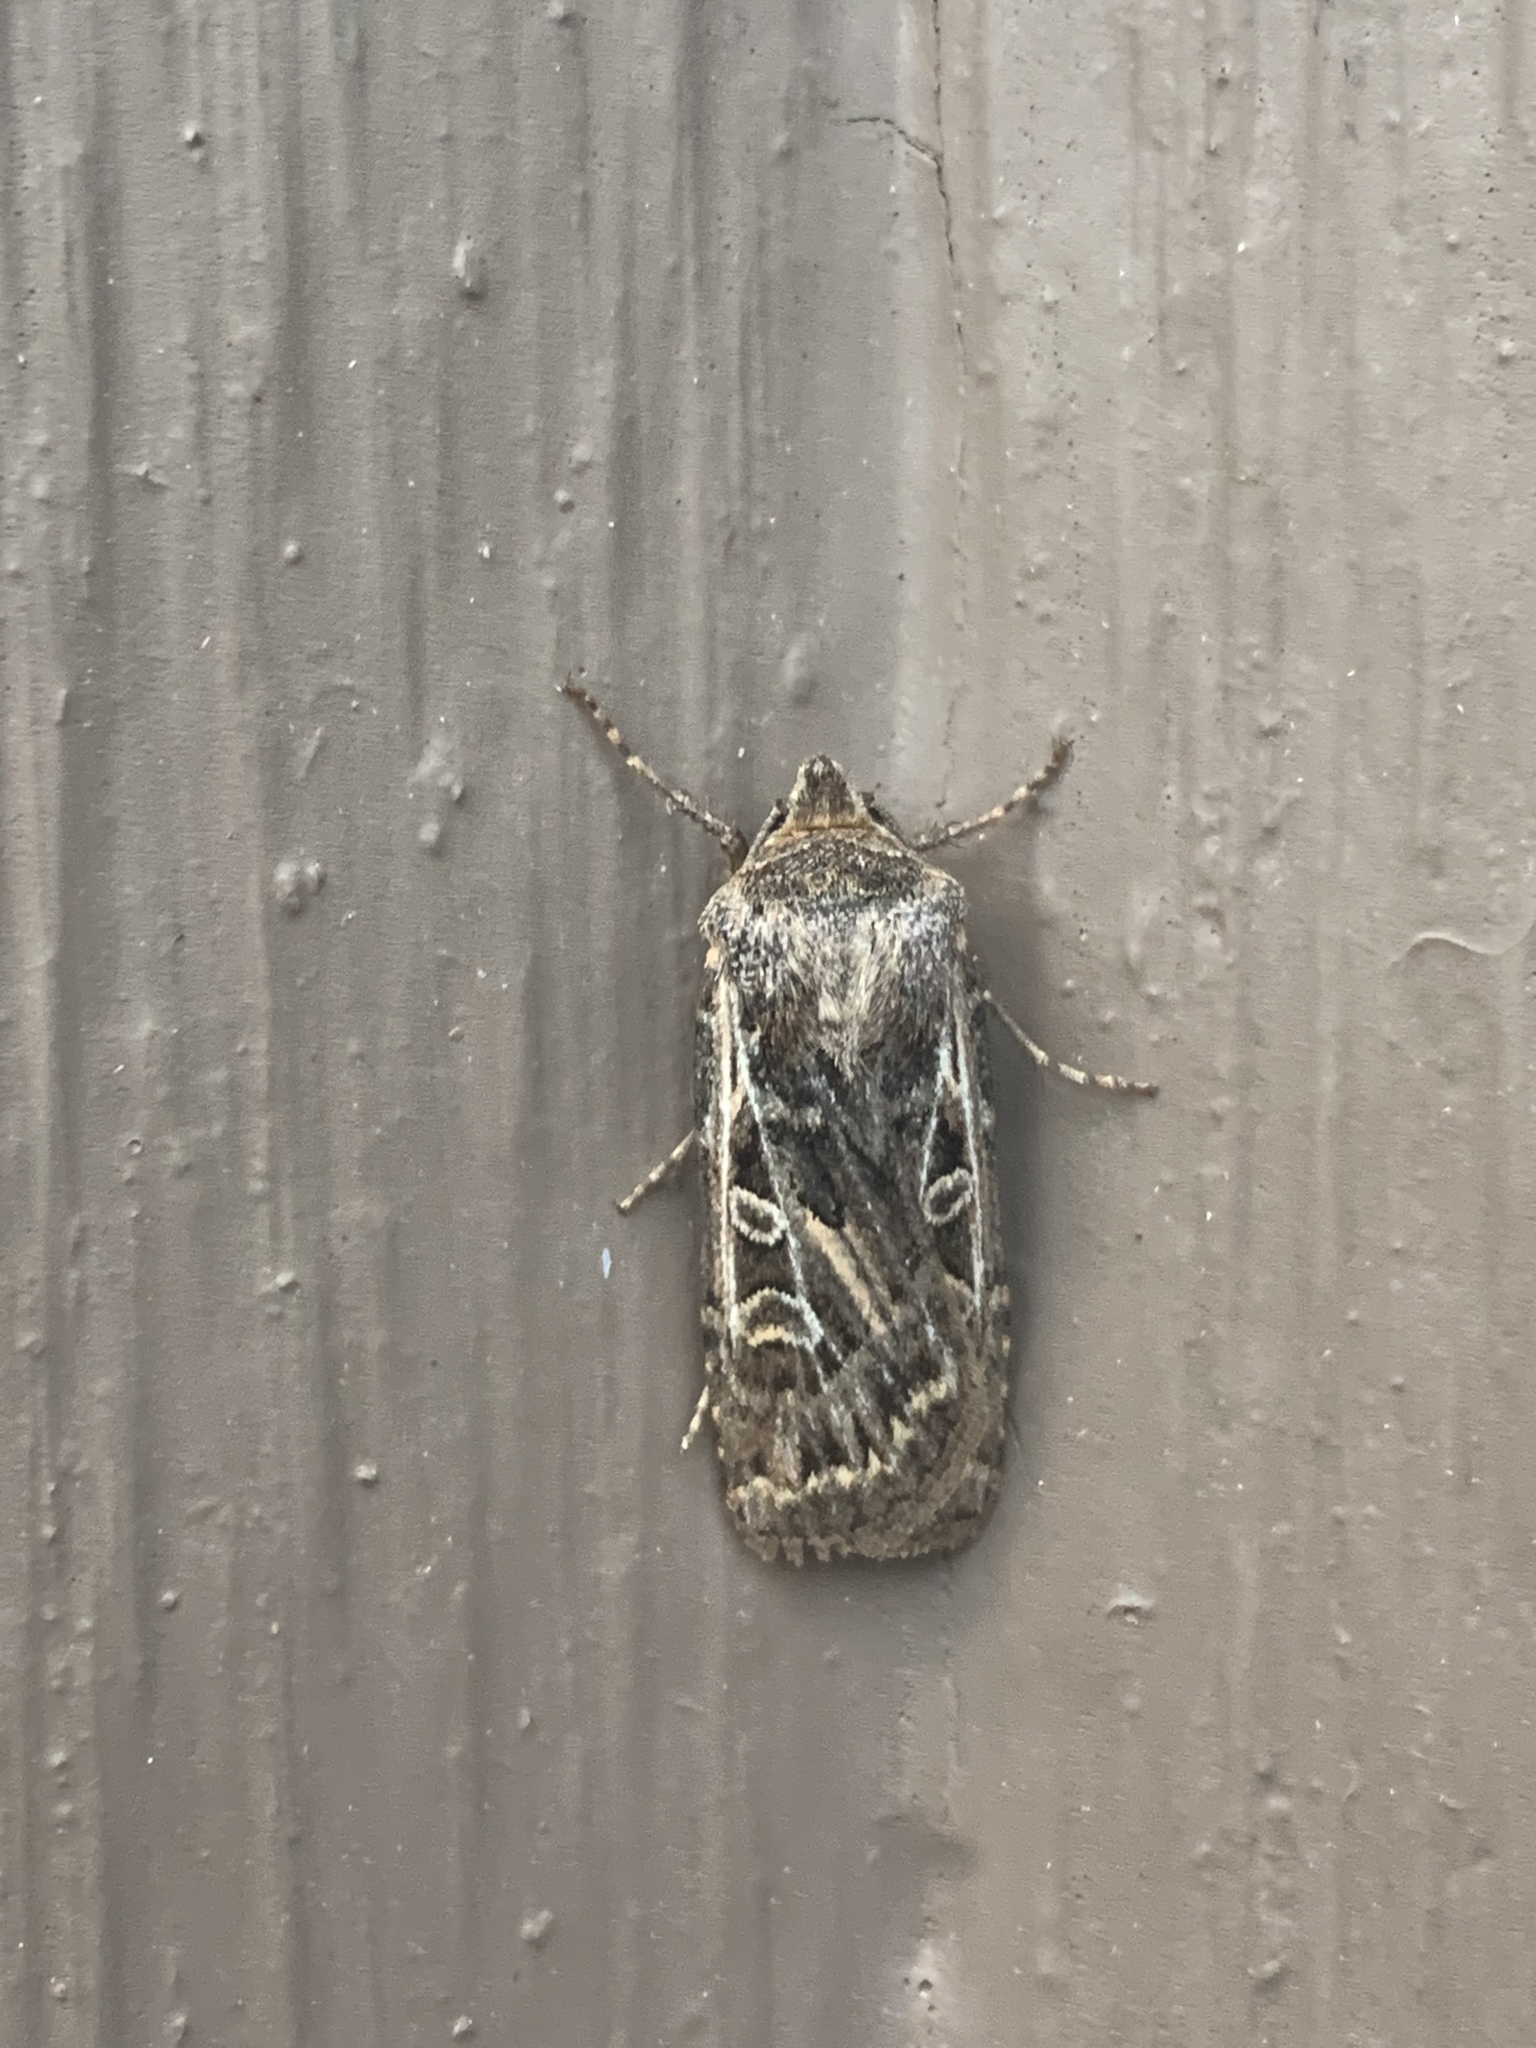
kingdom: Animalia
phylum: Arthropoda
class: Insecta
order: Lepidoptera
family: Noctuidae
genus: Euxoa
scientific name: Euxoa auxiliaris
